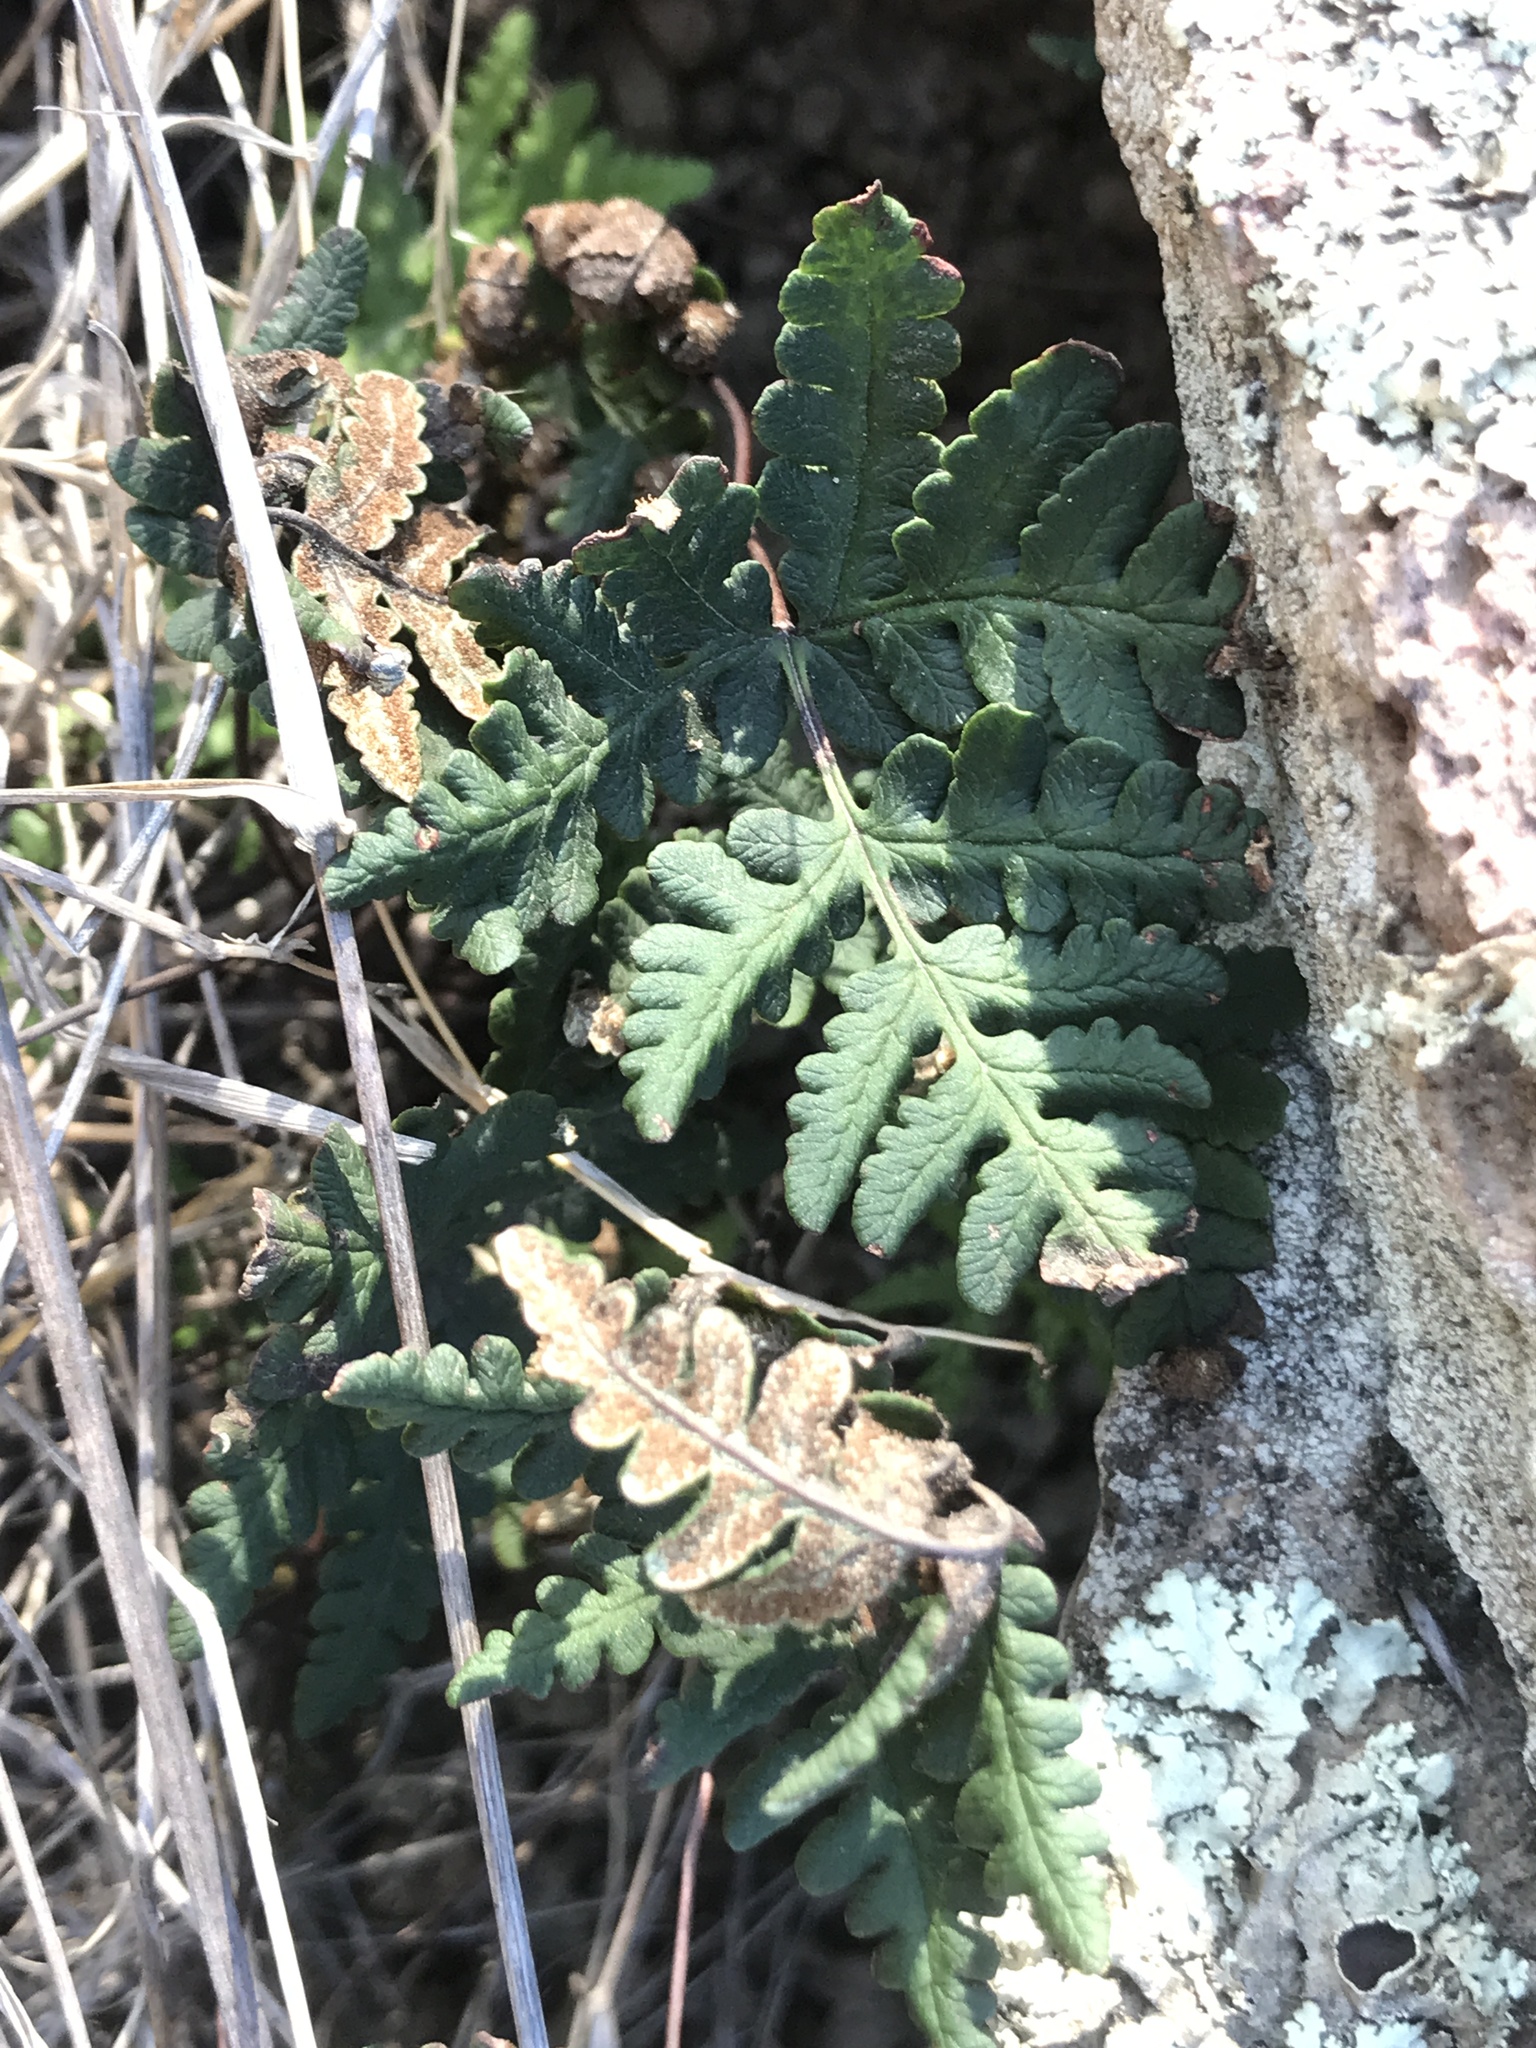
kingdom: Plantae
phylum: Tracheophyta
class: Polypodiopsida
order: Polypodiales
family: Pteridaceae
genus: Pentagramma
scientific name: Pentagramma triangularis
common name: Gold fern
